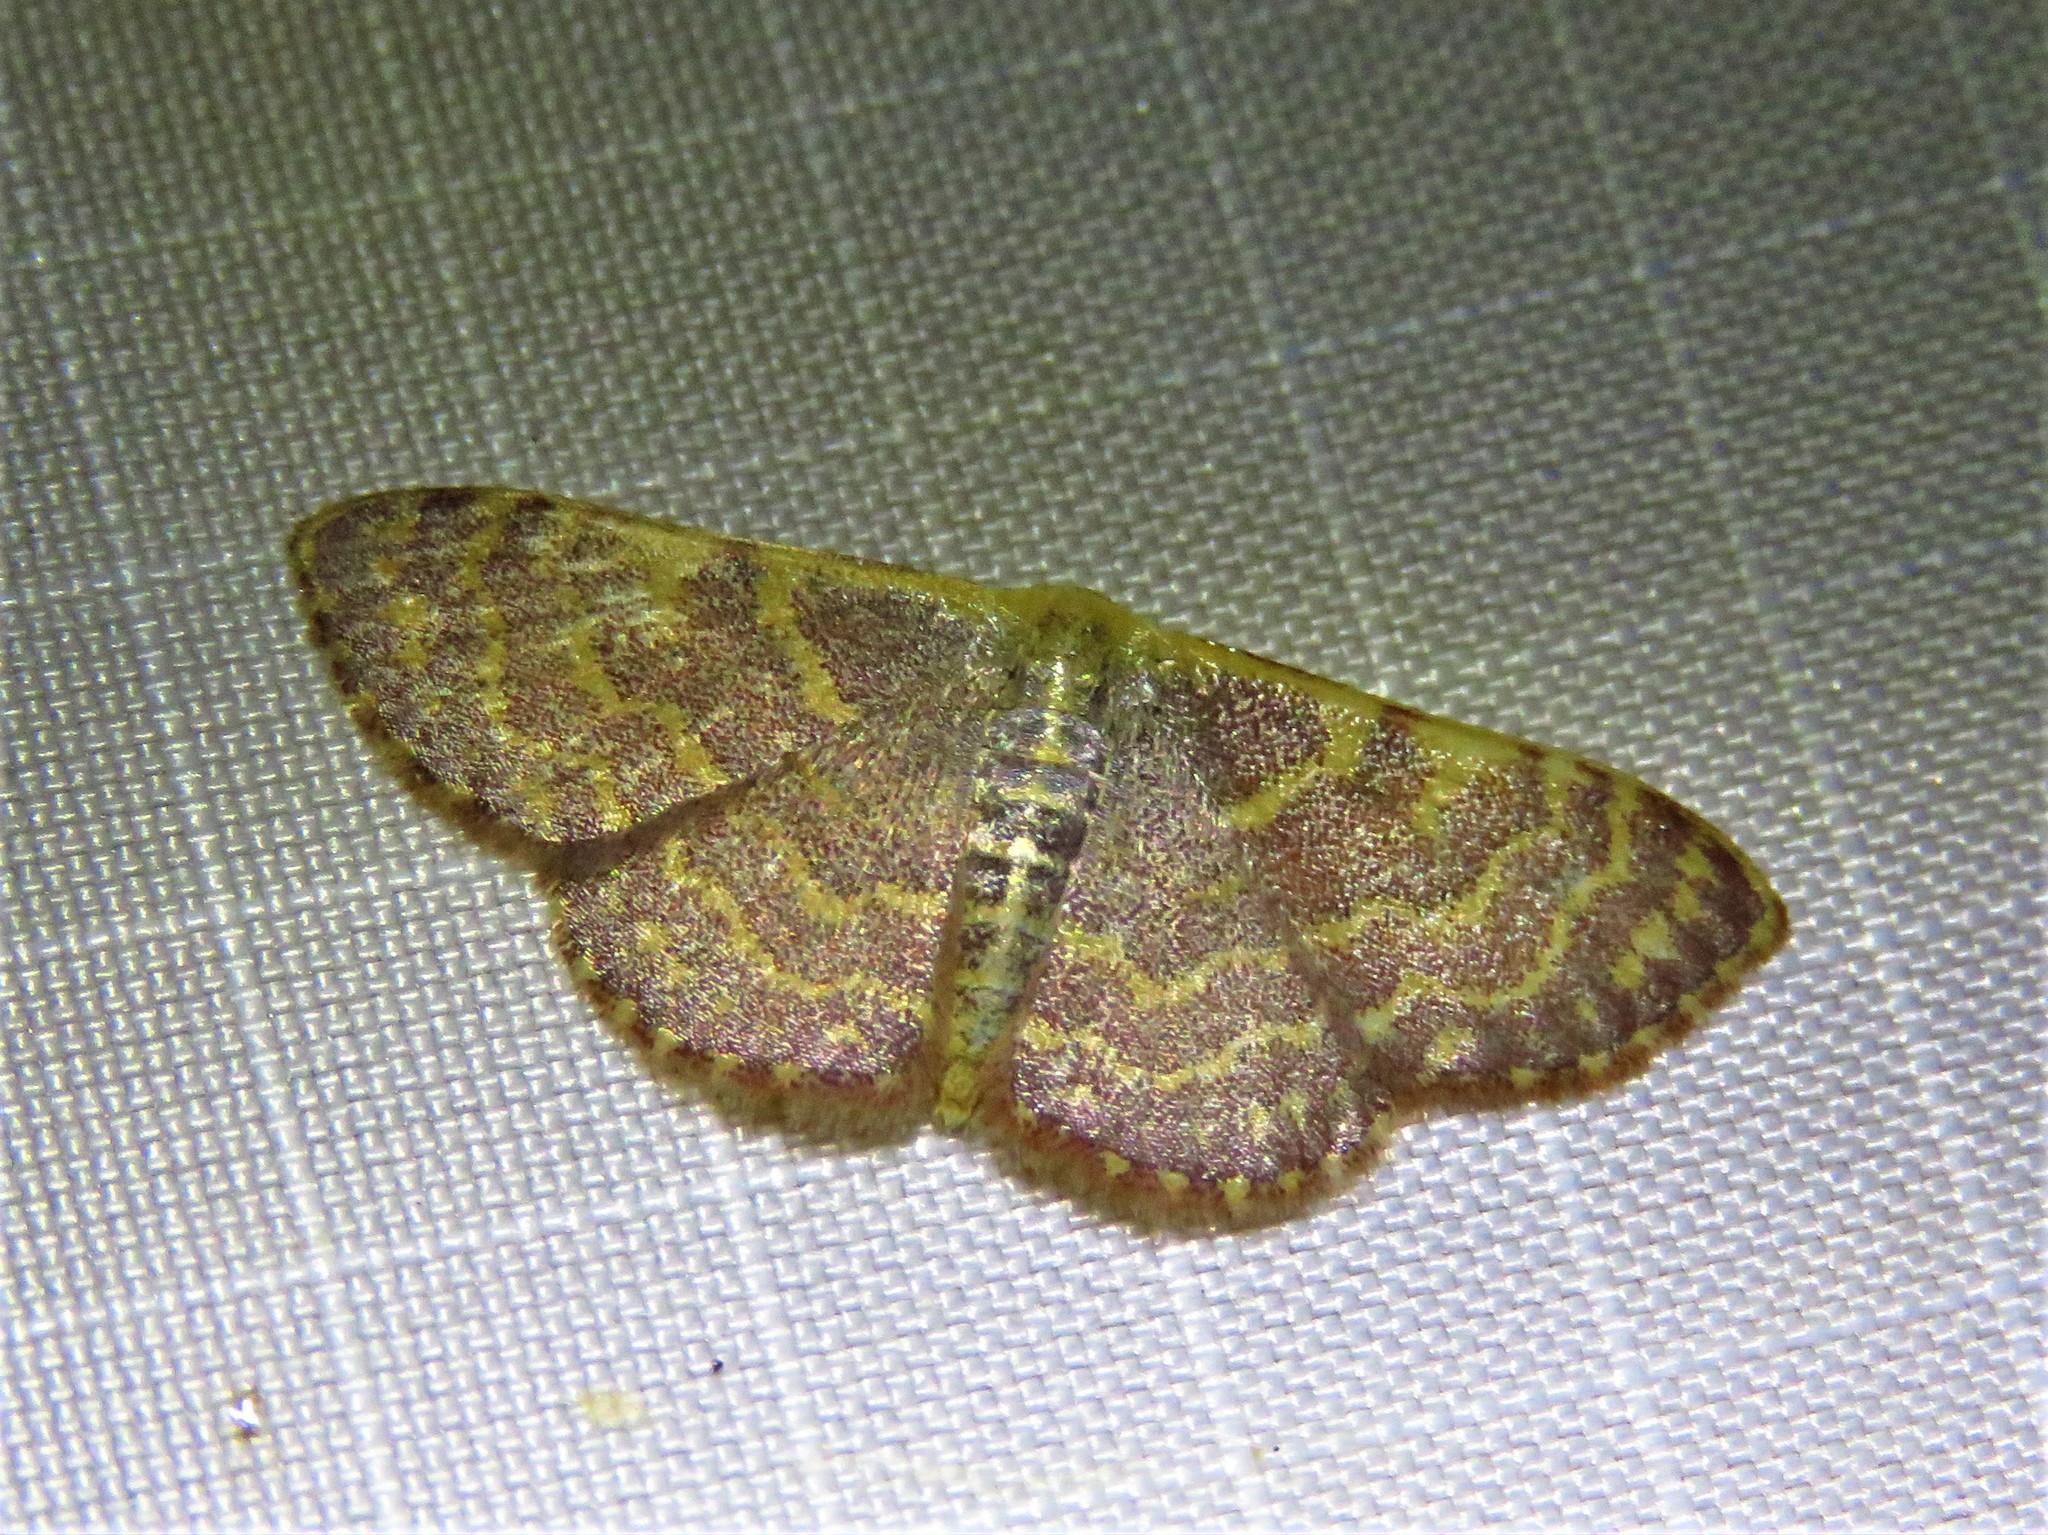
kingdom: Animalia
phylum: Arthropoda
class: Insecta
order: Lepidoptera
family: Geometridae
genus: Leptostales
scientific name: Leptostales pannaria
